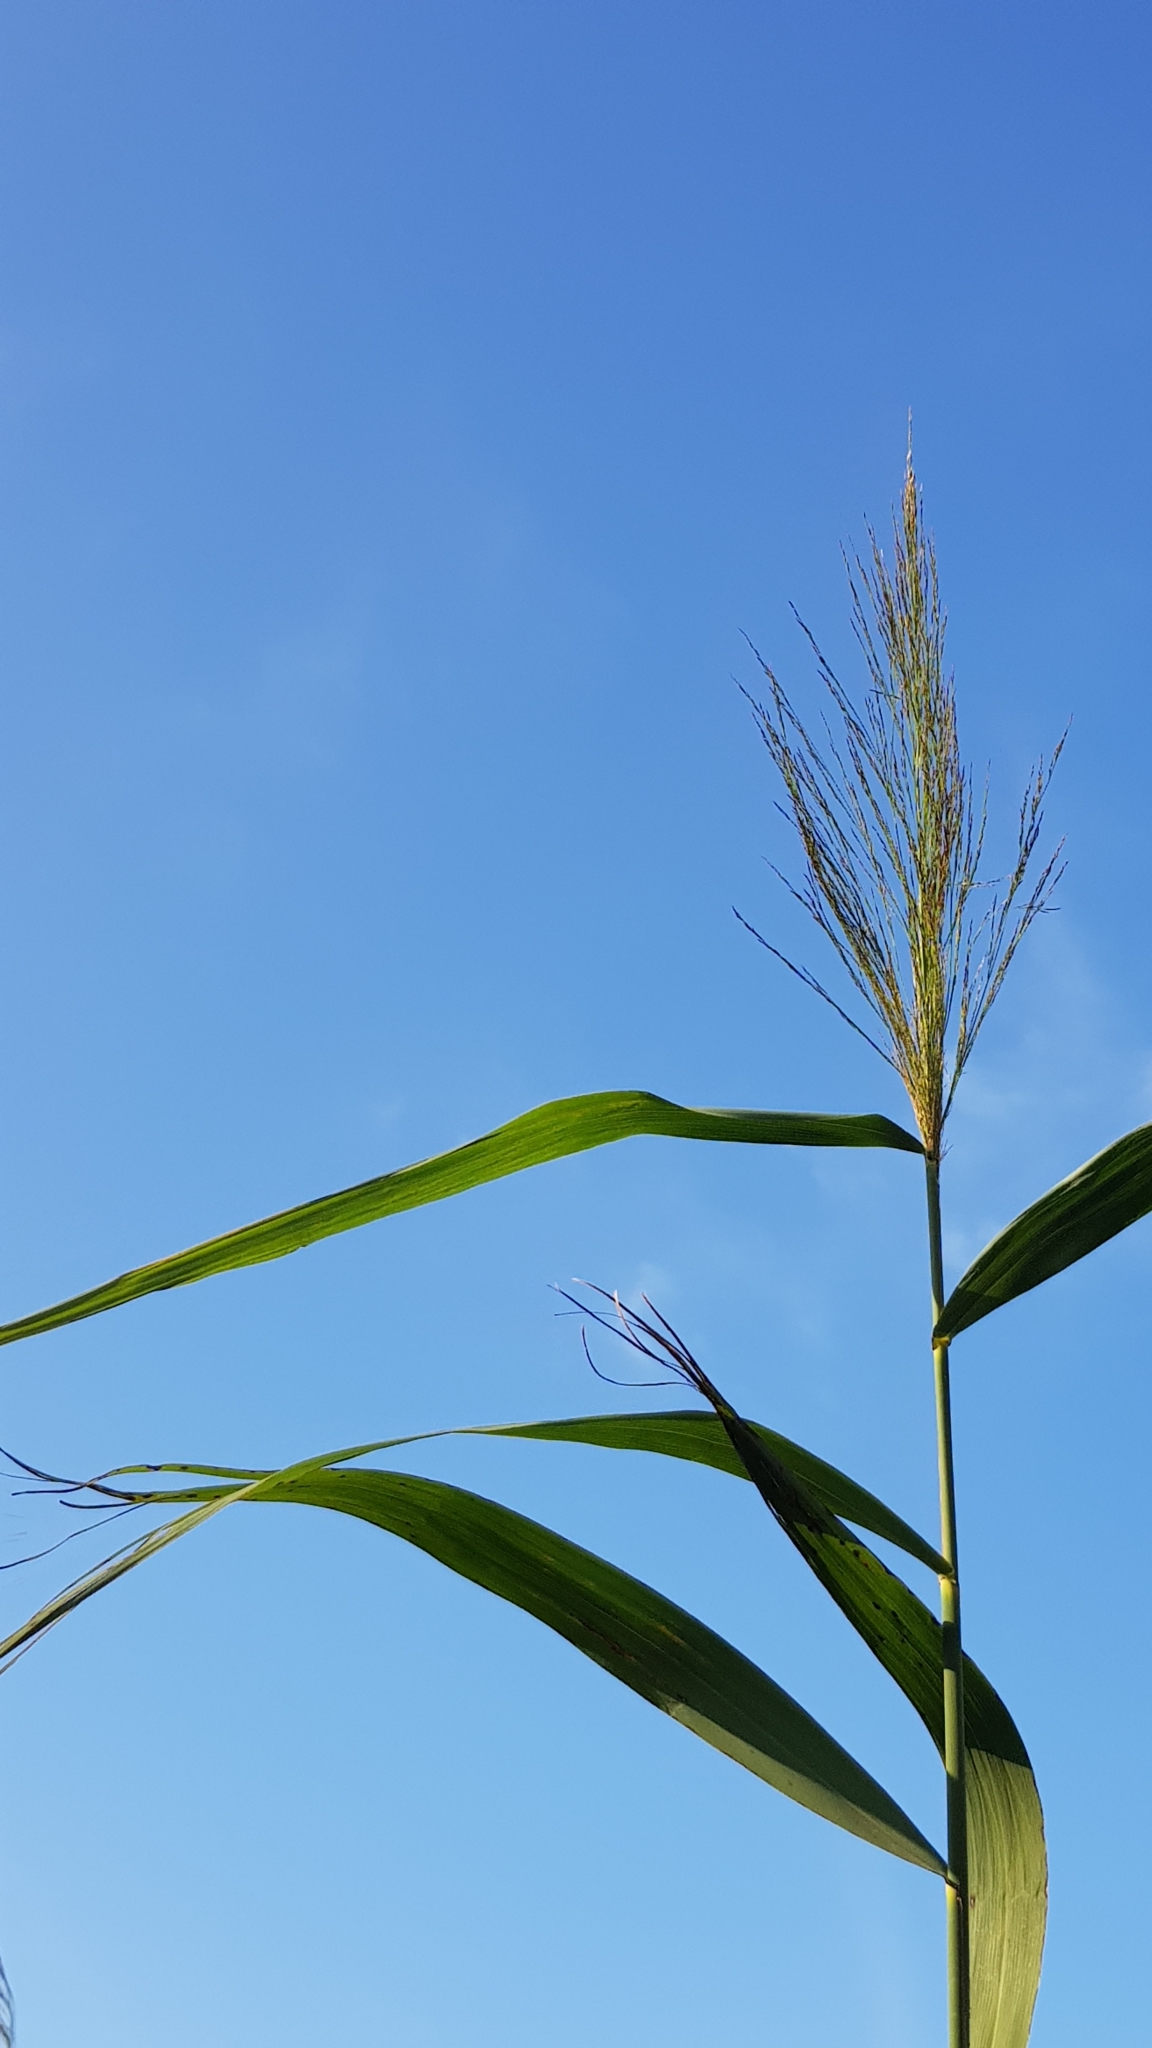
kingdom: Plantae
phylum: Tracheophyta
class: Liliopsida
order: Poales
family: Poaceae
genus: Phragmites
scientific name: Phragmites australis
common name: Common reed
